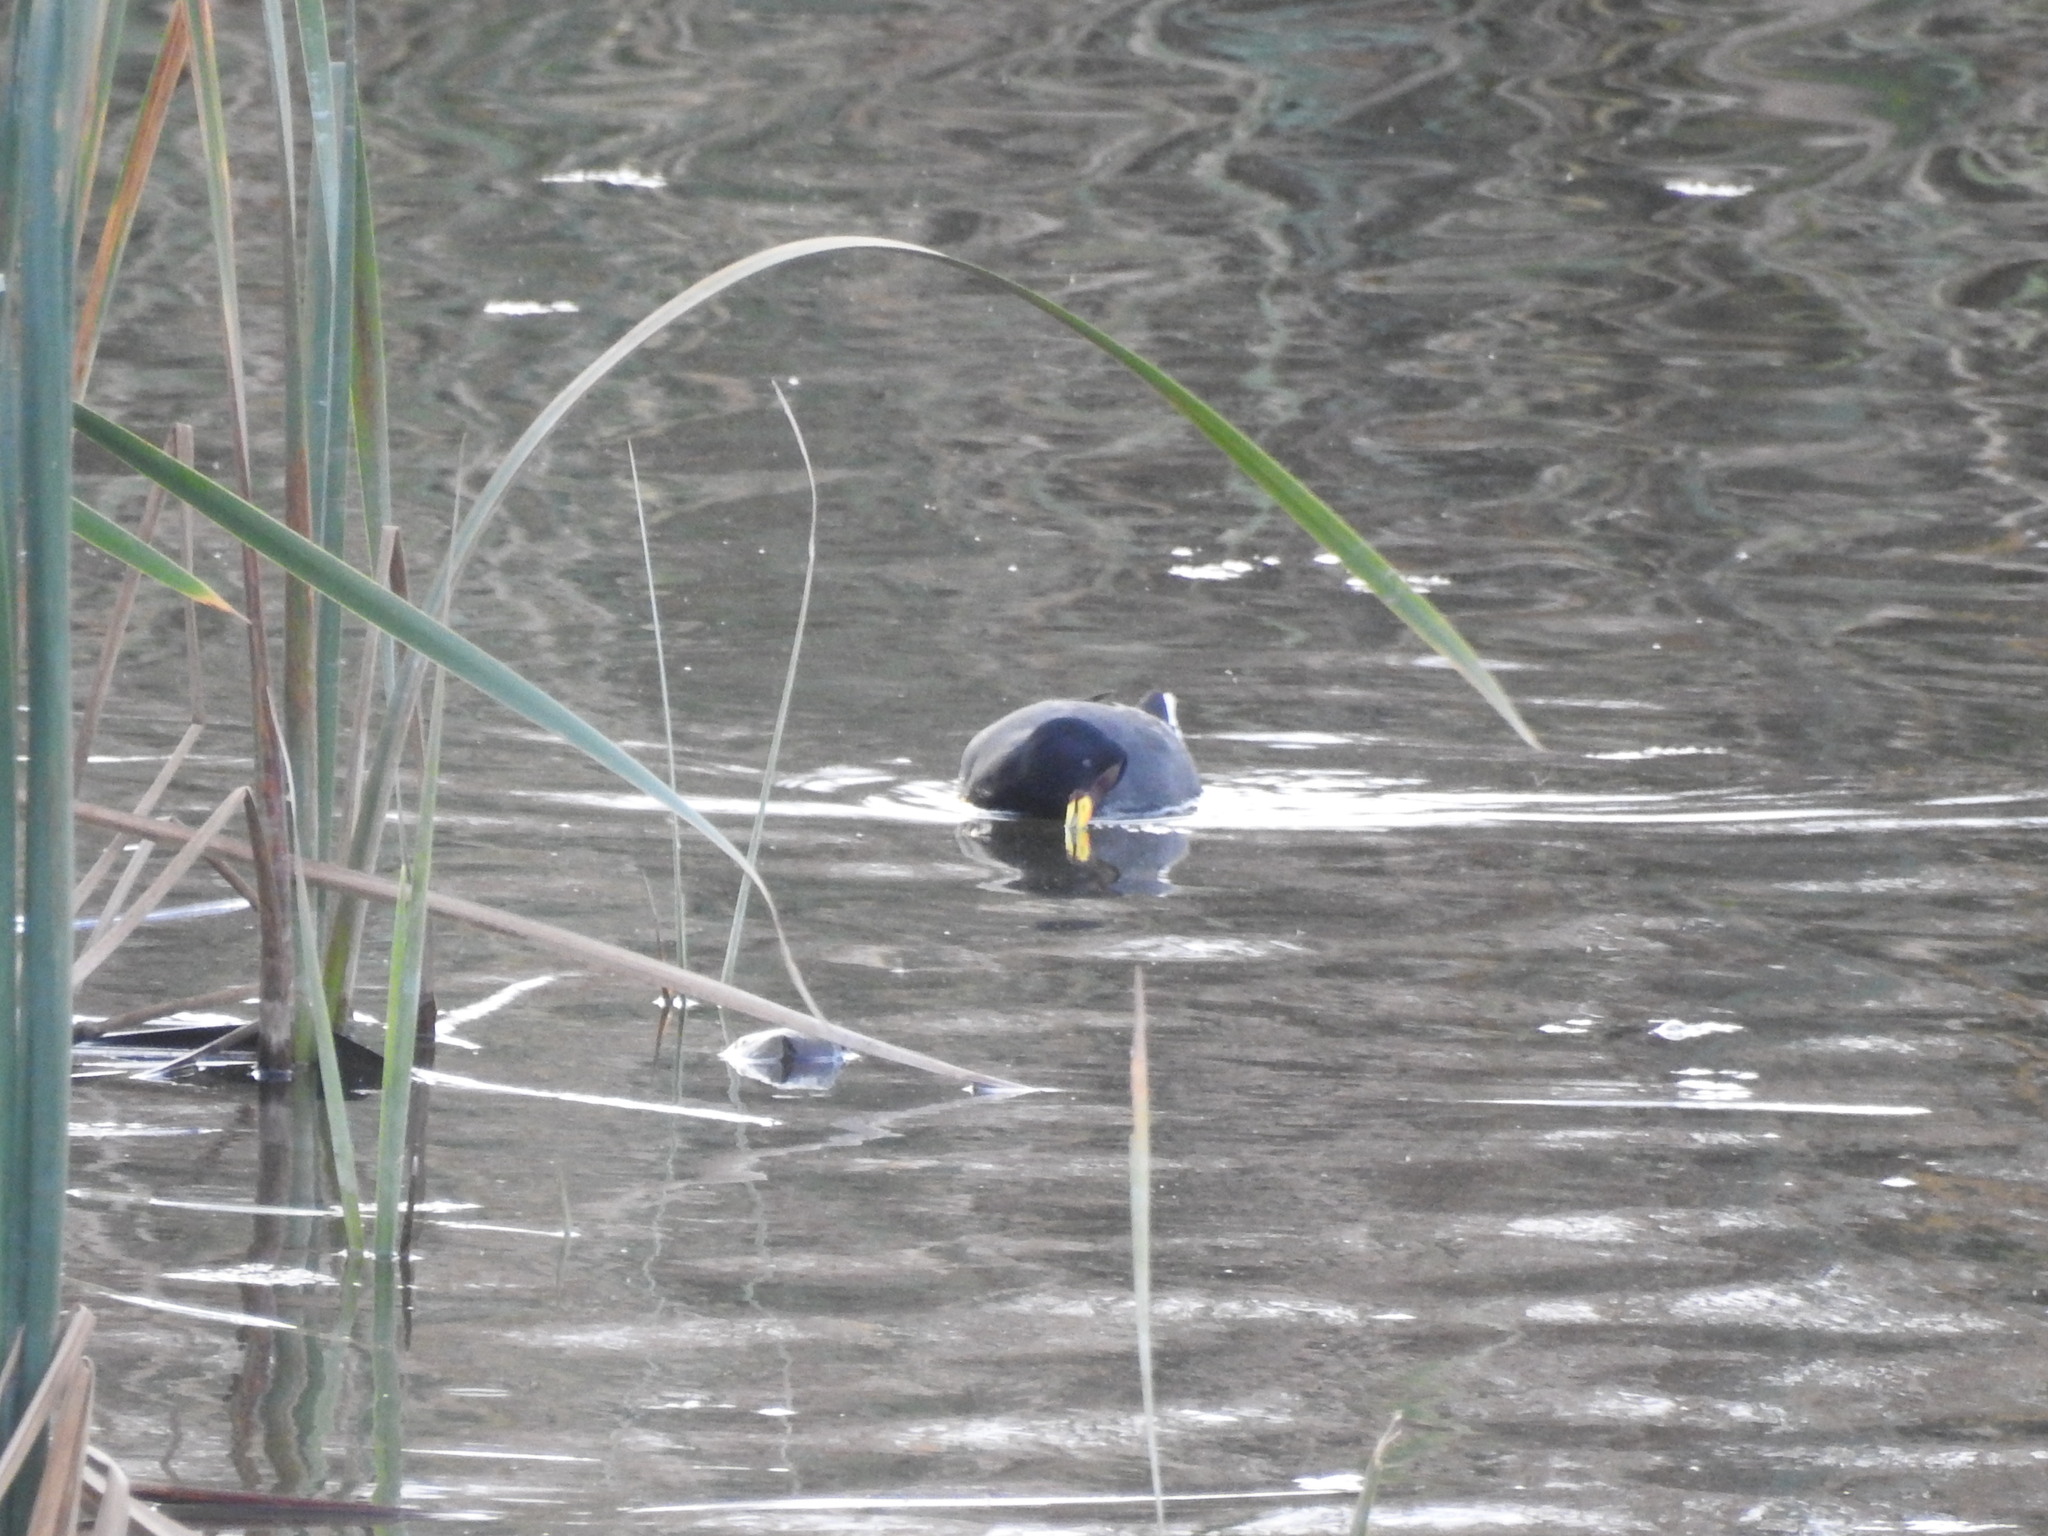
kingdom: Animalia
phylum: Chordata
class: Aves
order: Gruiformes
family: Rallidae
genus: Fulica
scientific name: Fulica rufifrons
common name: Red-fronted coot
